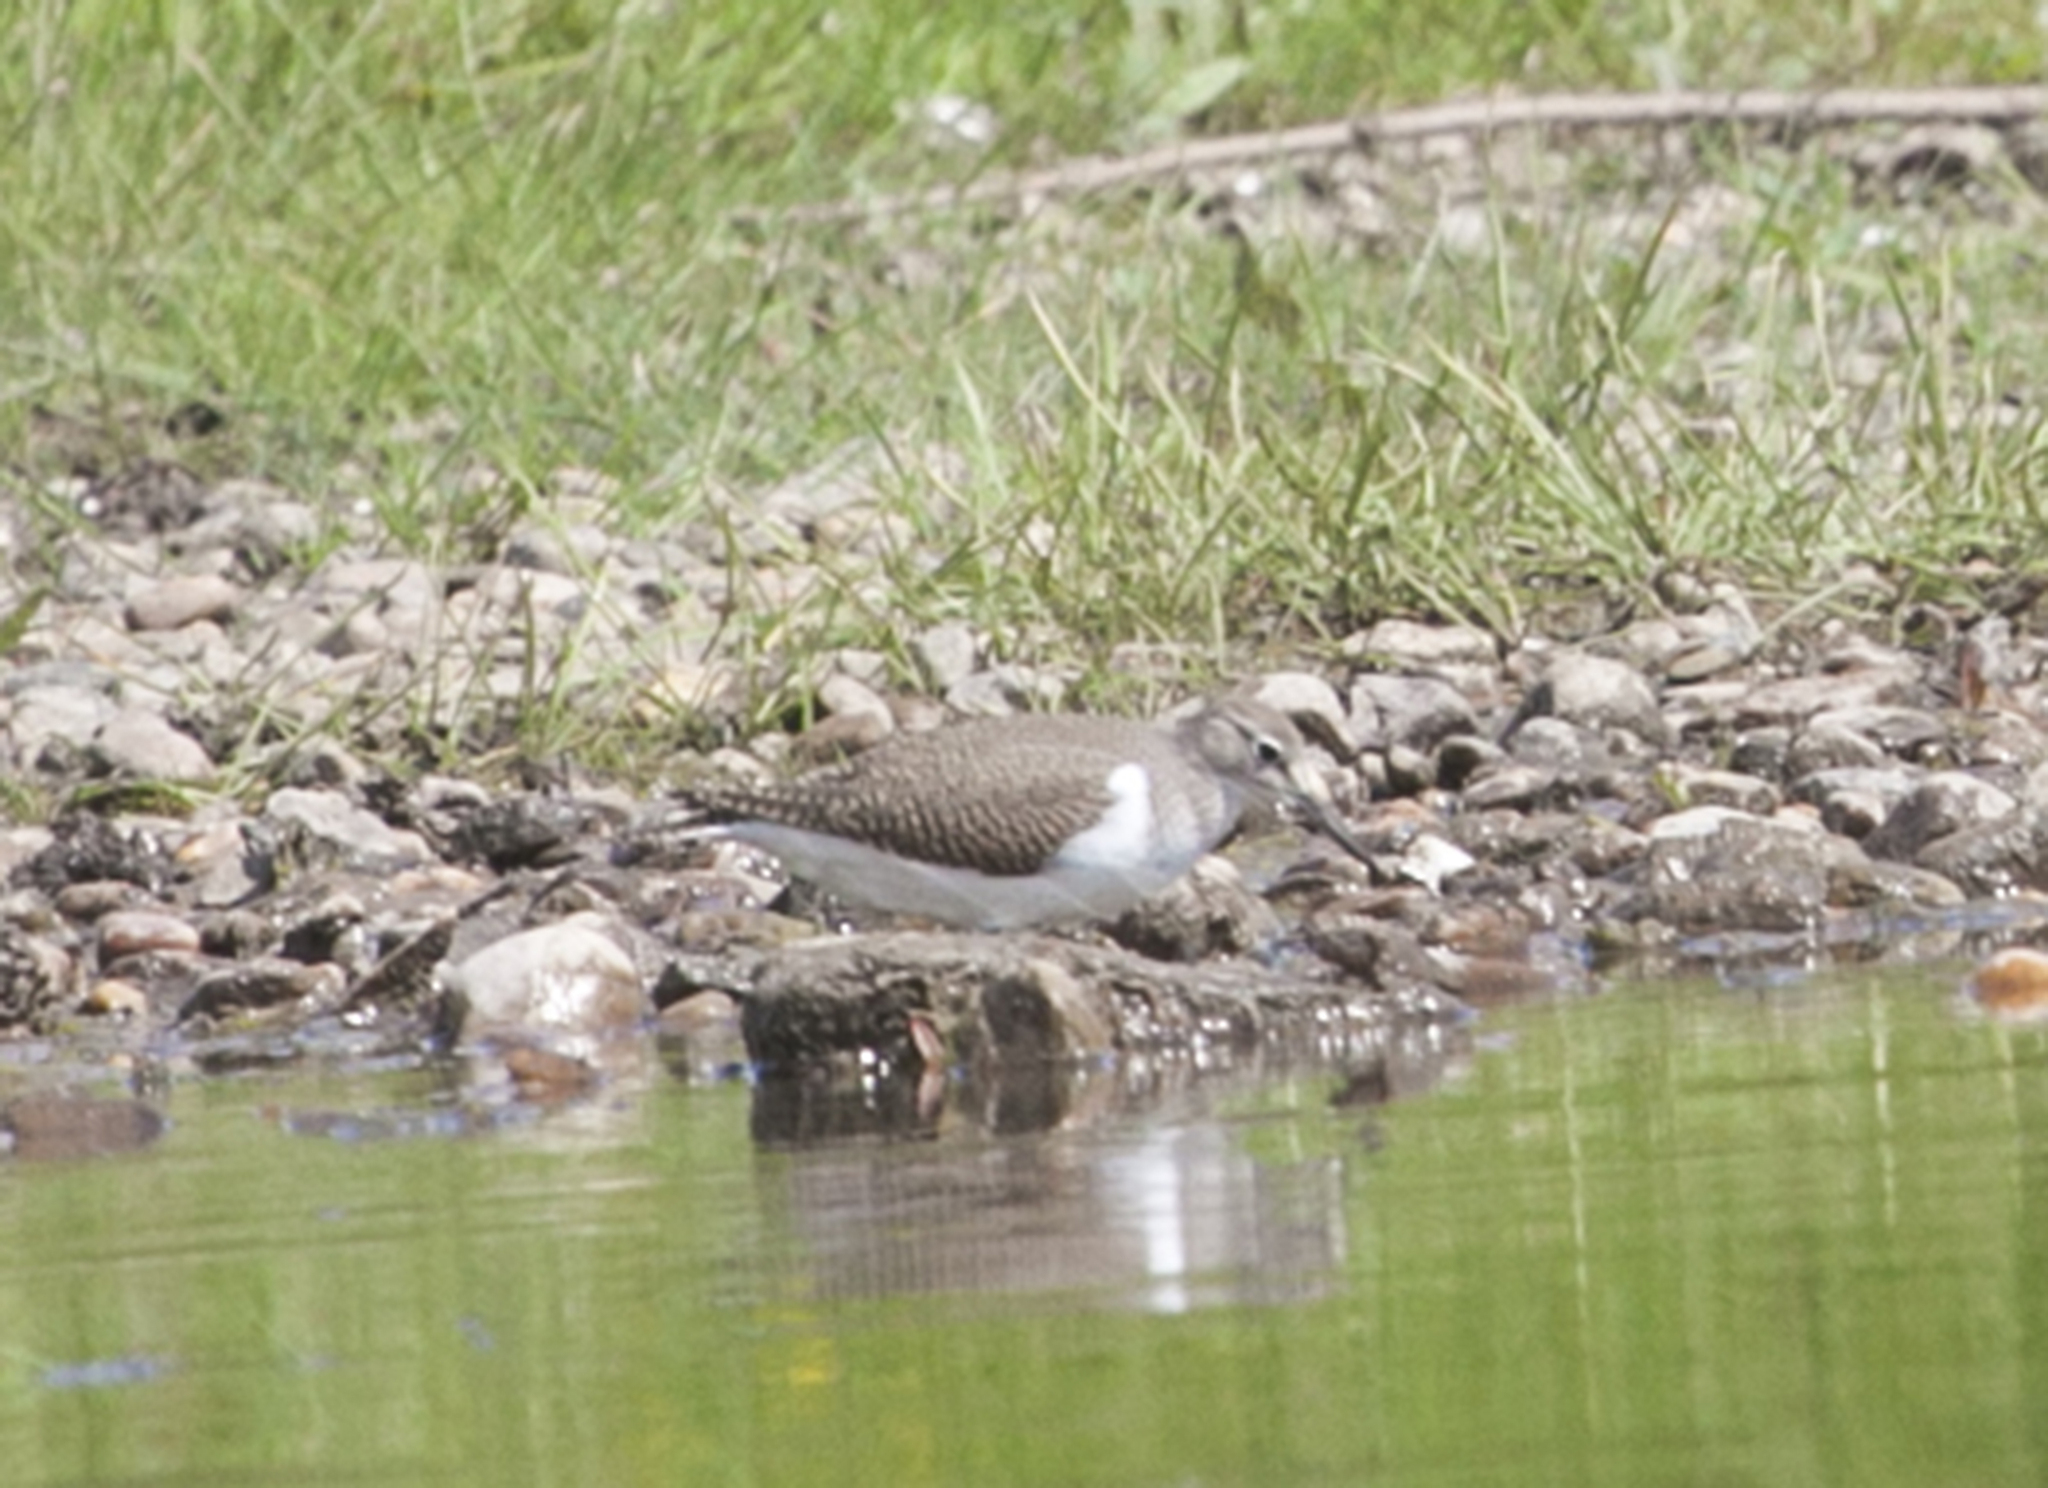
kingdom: Animalia
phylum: Chordata
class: Aves
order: Charadriiformes
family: Scolopacidae
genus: Actitis
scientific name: Actitis hypoleucos
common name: Common sandpiper
